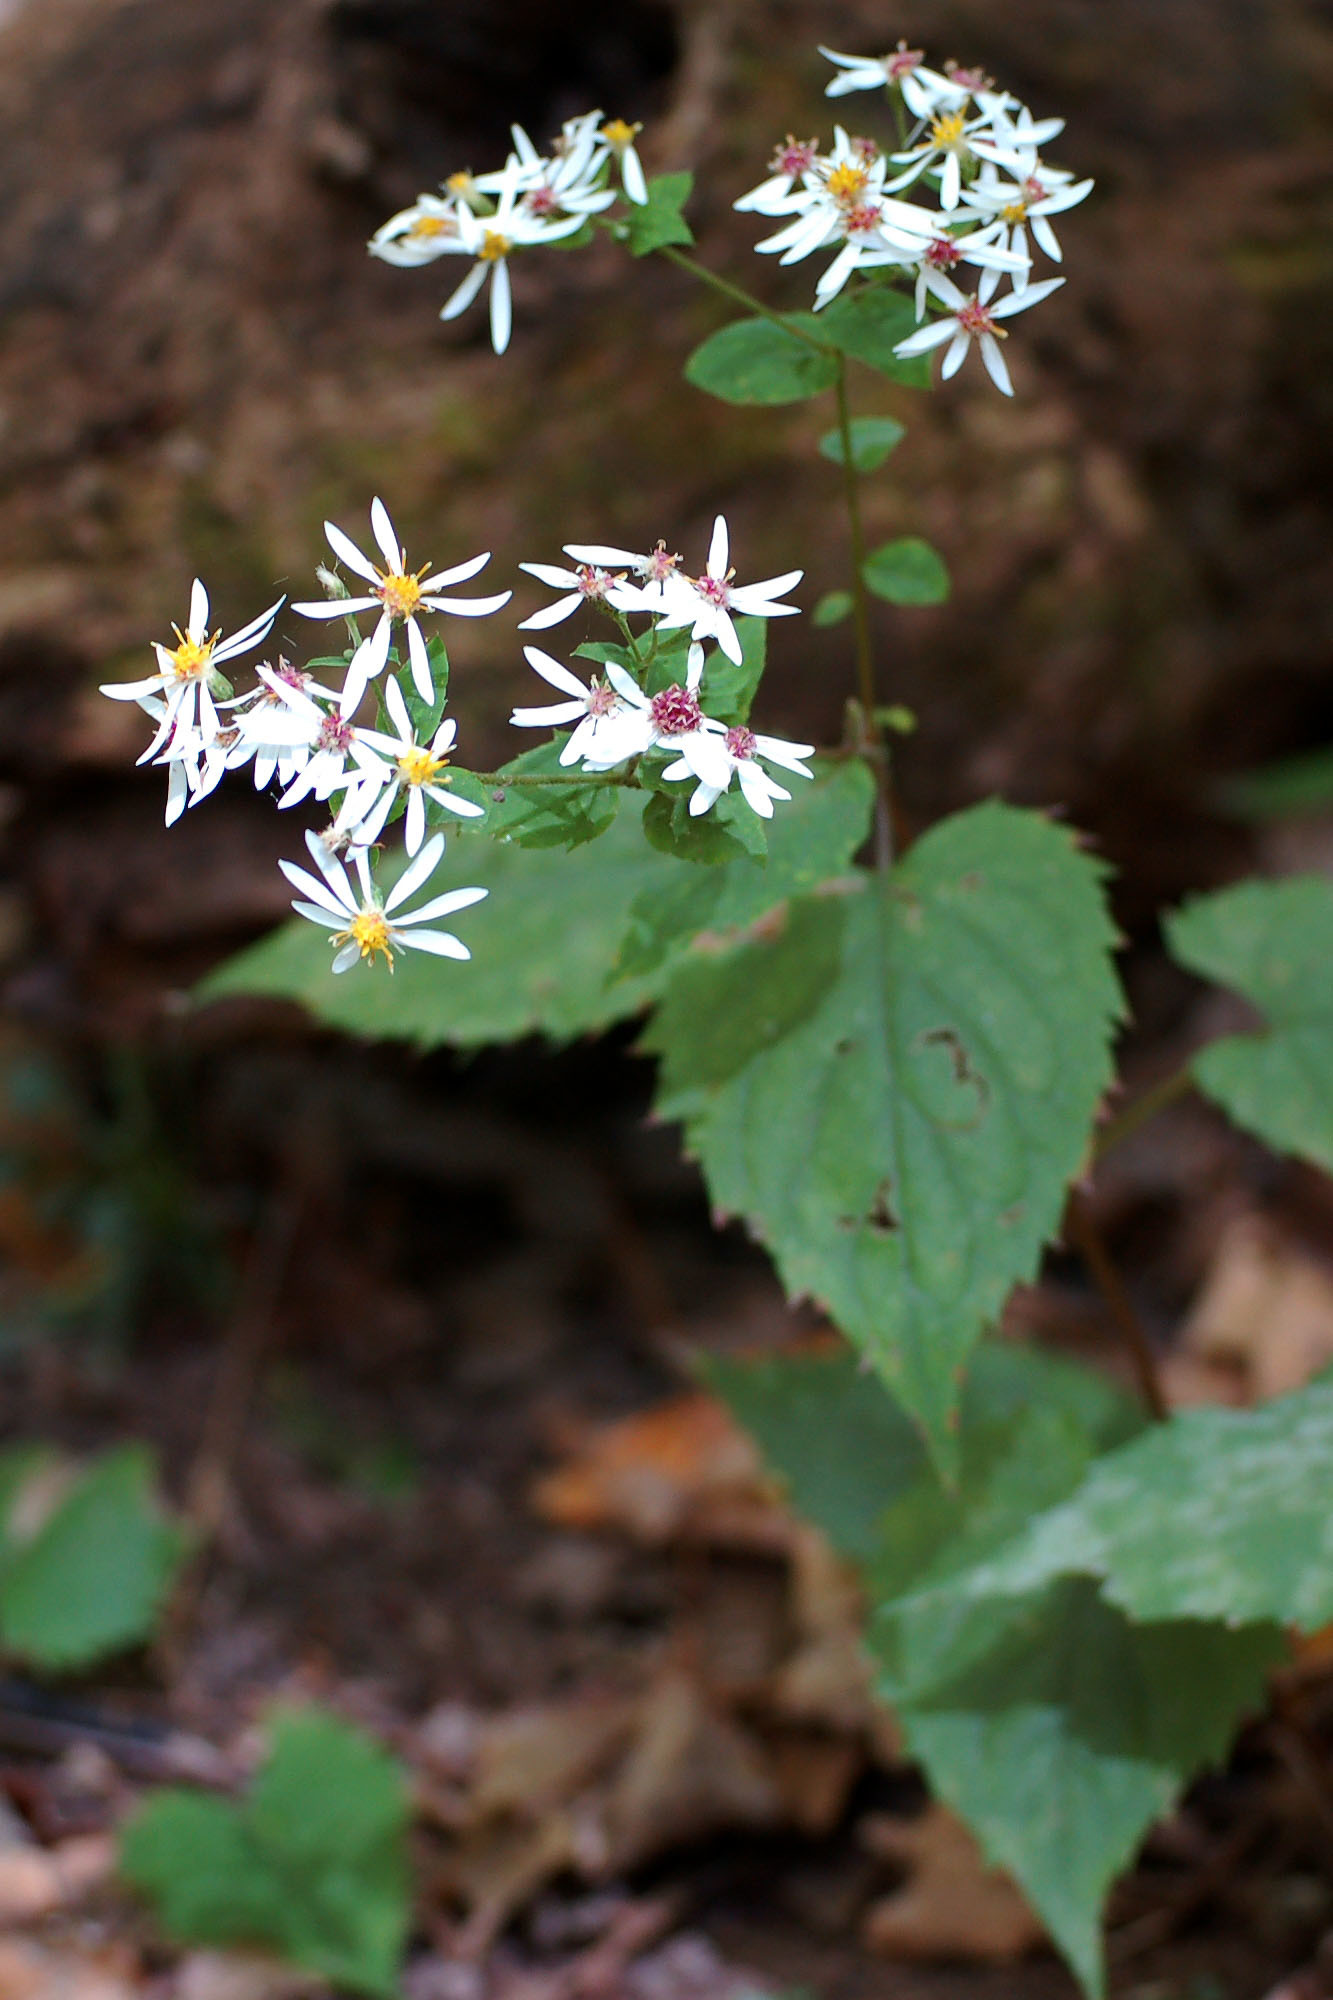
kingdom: Plantae
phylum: Tracheophyta
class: Magnoliopsida
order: Asterales
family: Asteraceae
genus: Eurybia
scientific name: Eurybia divaricata
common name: White wood aster
